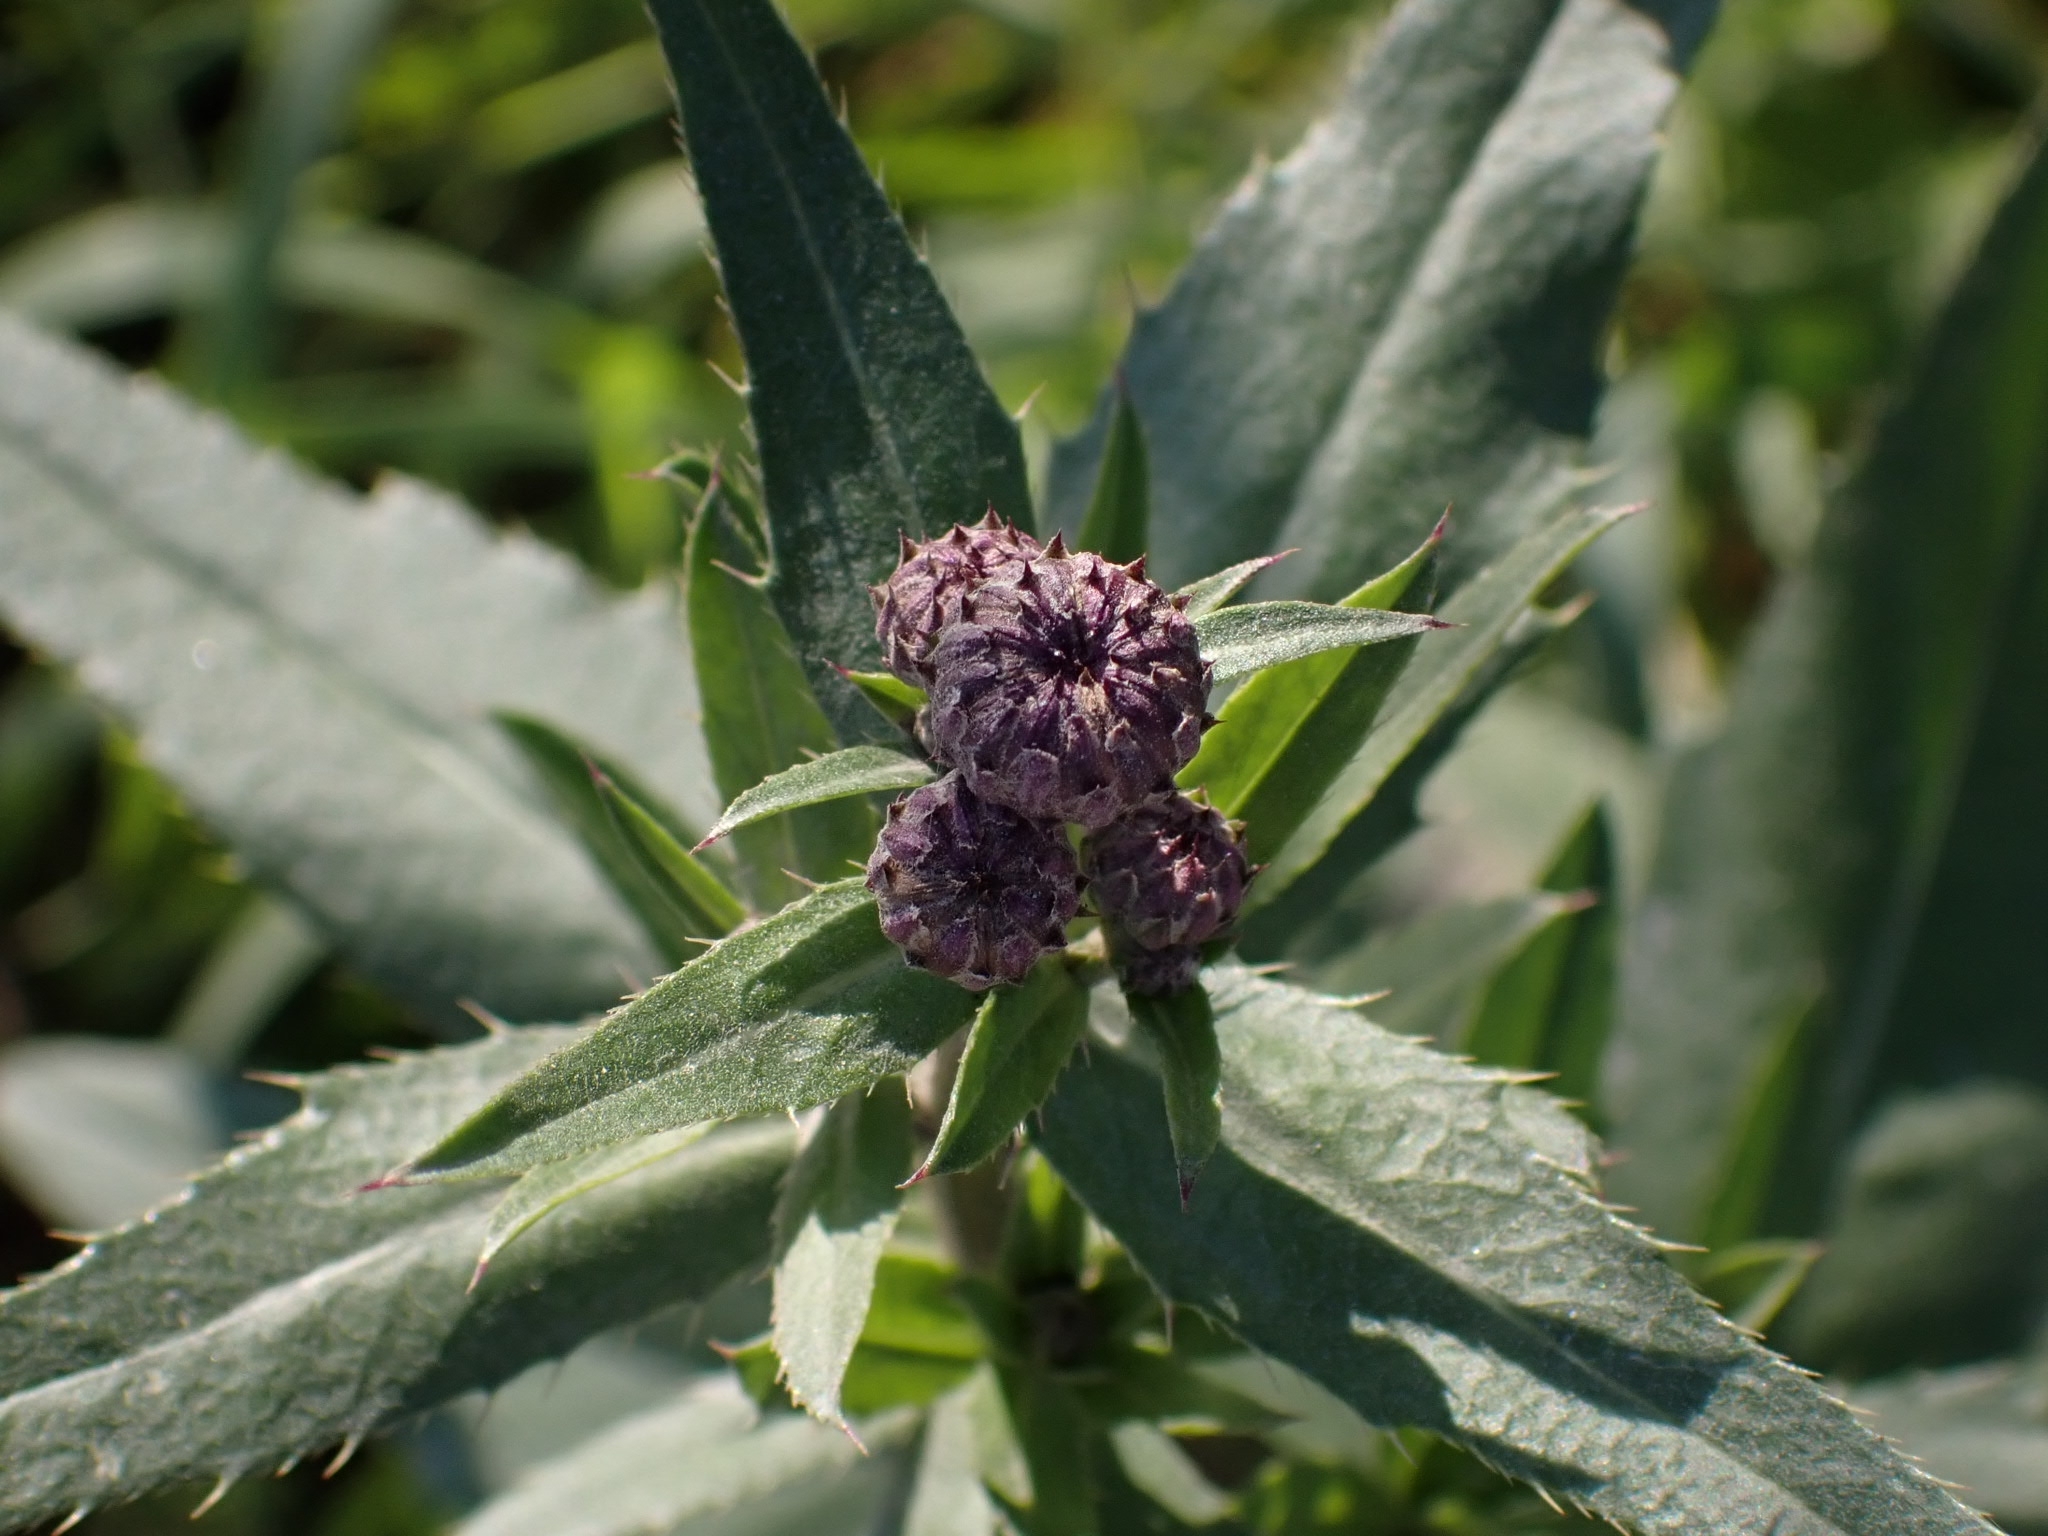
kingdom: Plantae
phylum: Tracheophyta
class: Magnoliopsida
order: Asterales
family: Asteraceae
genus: Cirsium
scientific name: Cirsium arvense
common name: Creeping thistle
